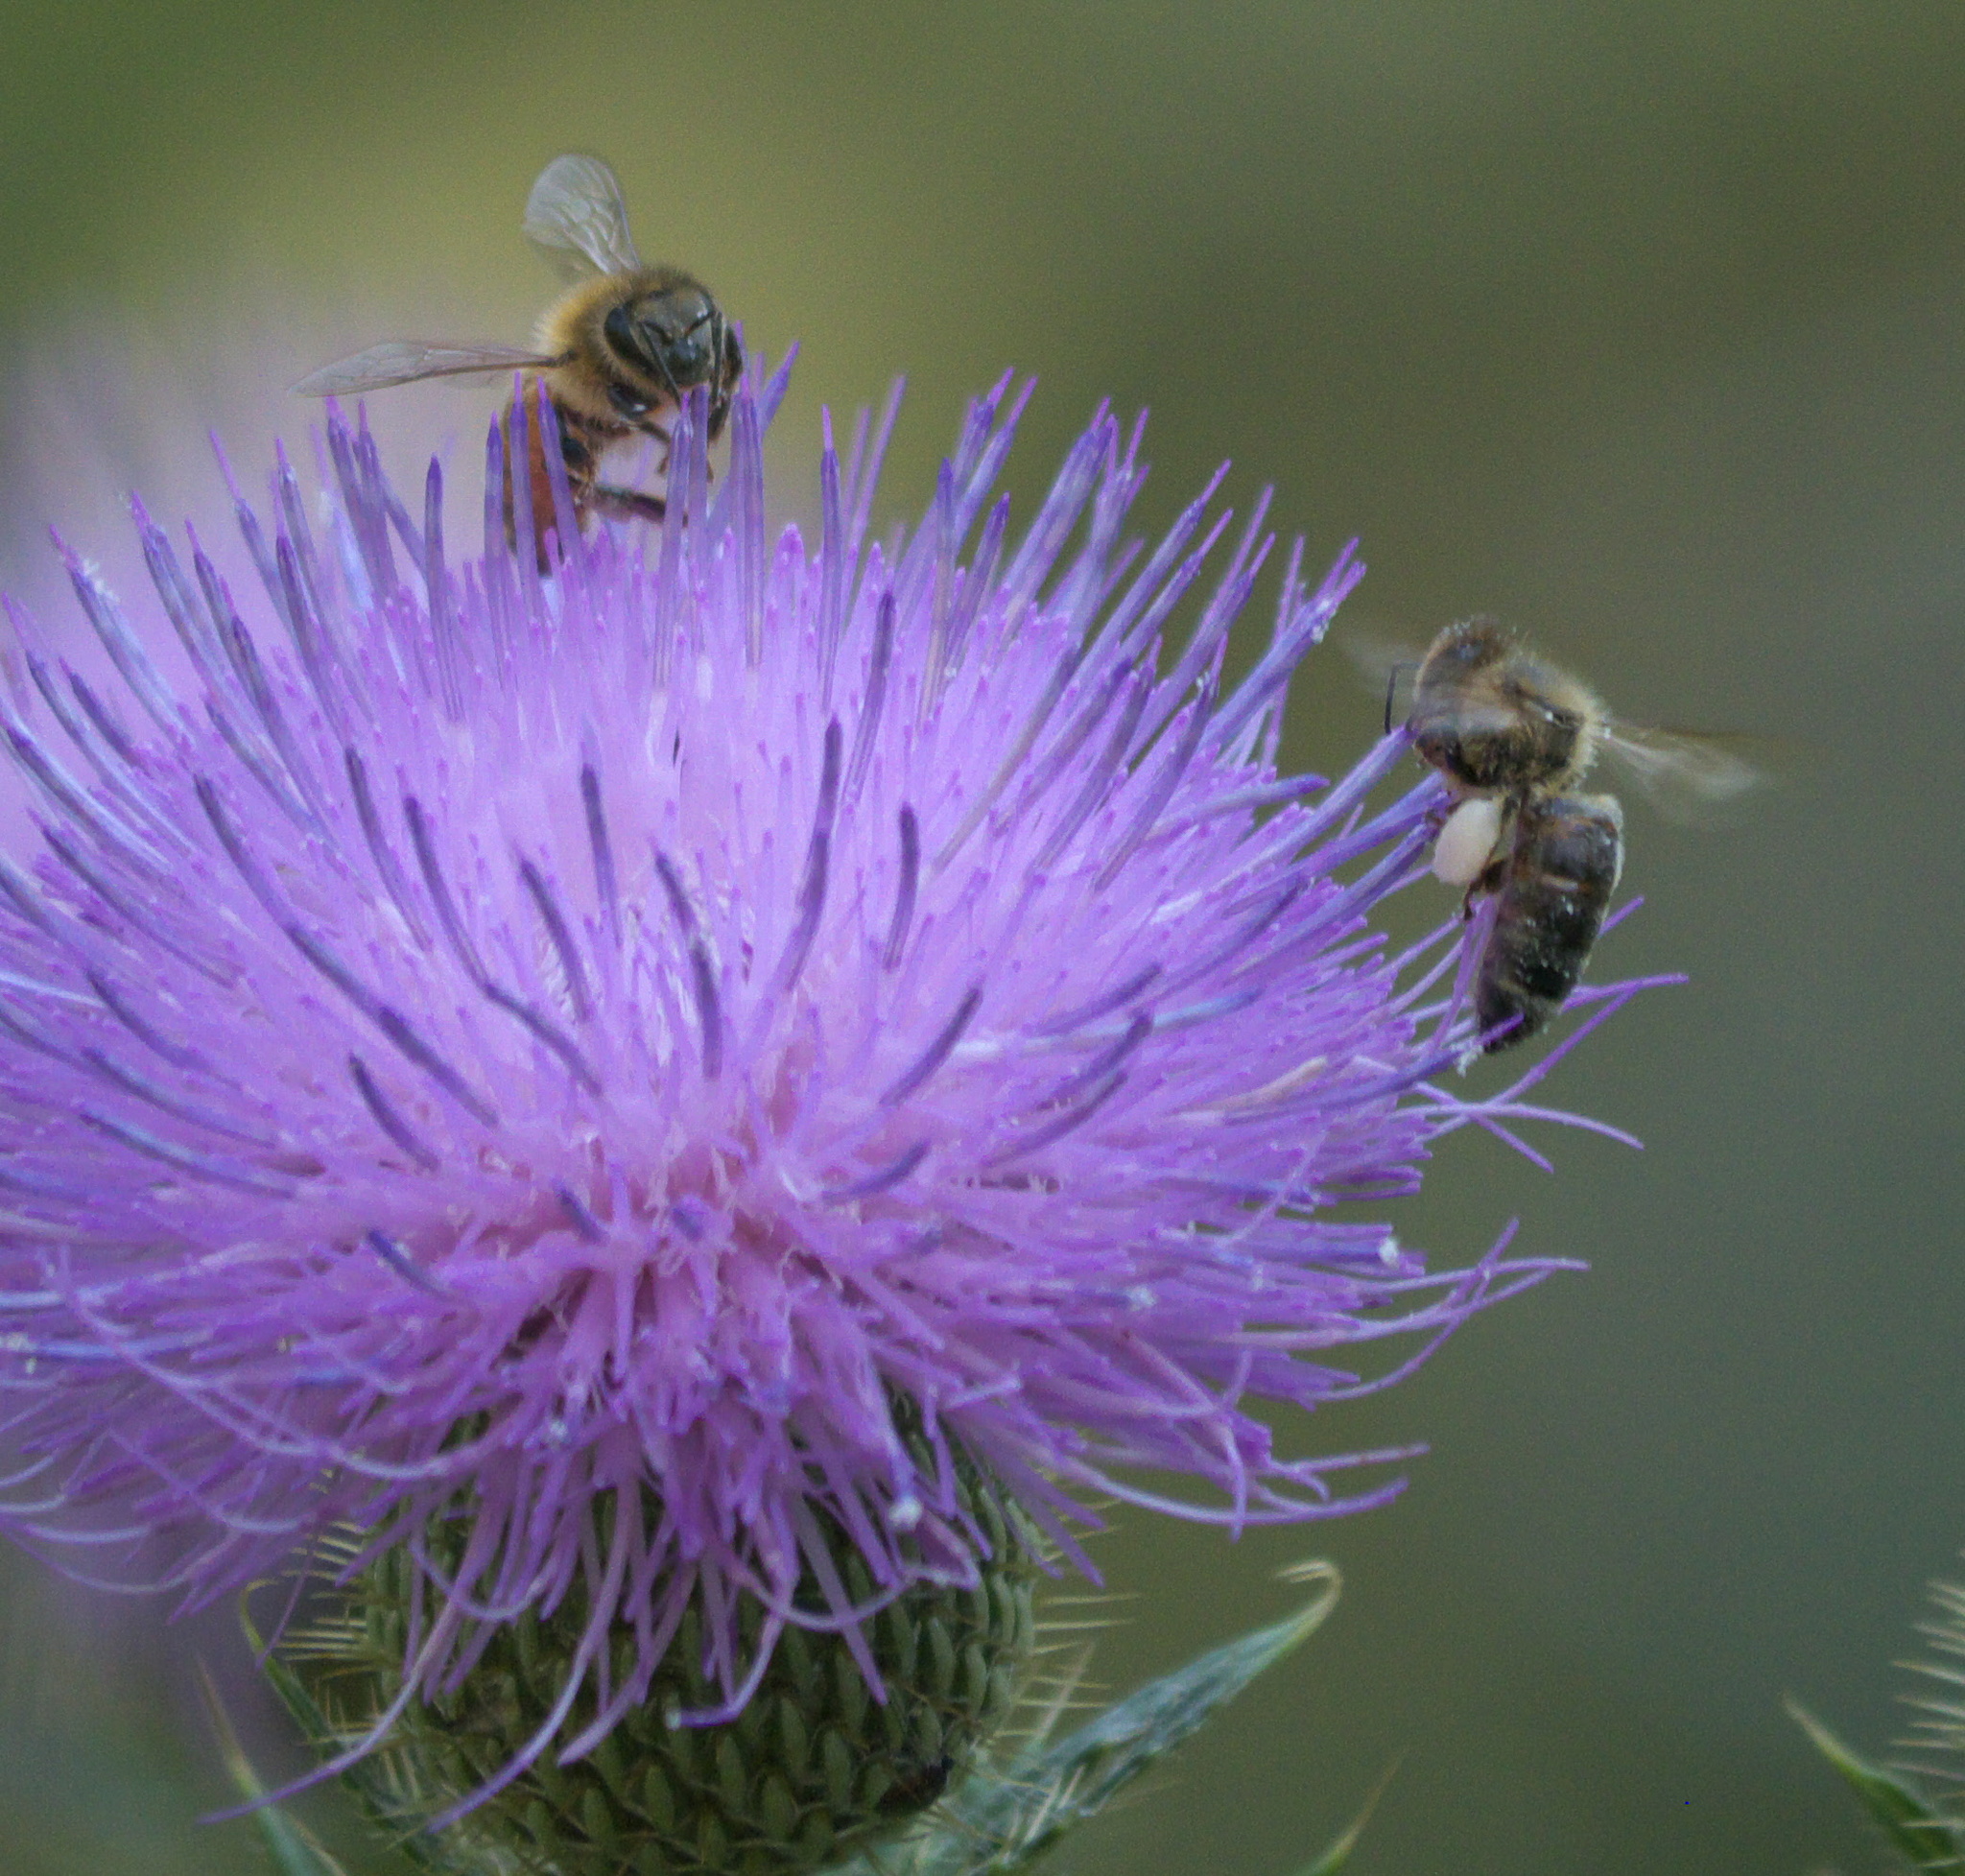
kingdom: Animalia
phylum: Arthropoda
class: Insecta
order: Hymenoptera
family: Apidae
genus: Apis
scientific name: Apis mellifera
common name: Honey bee
